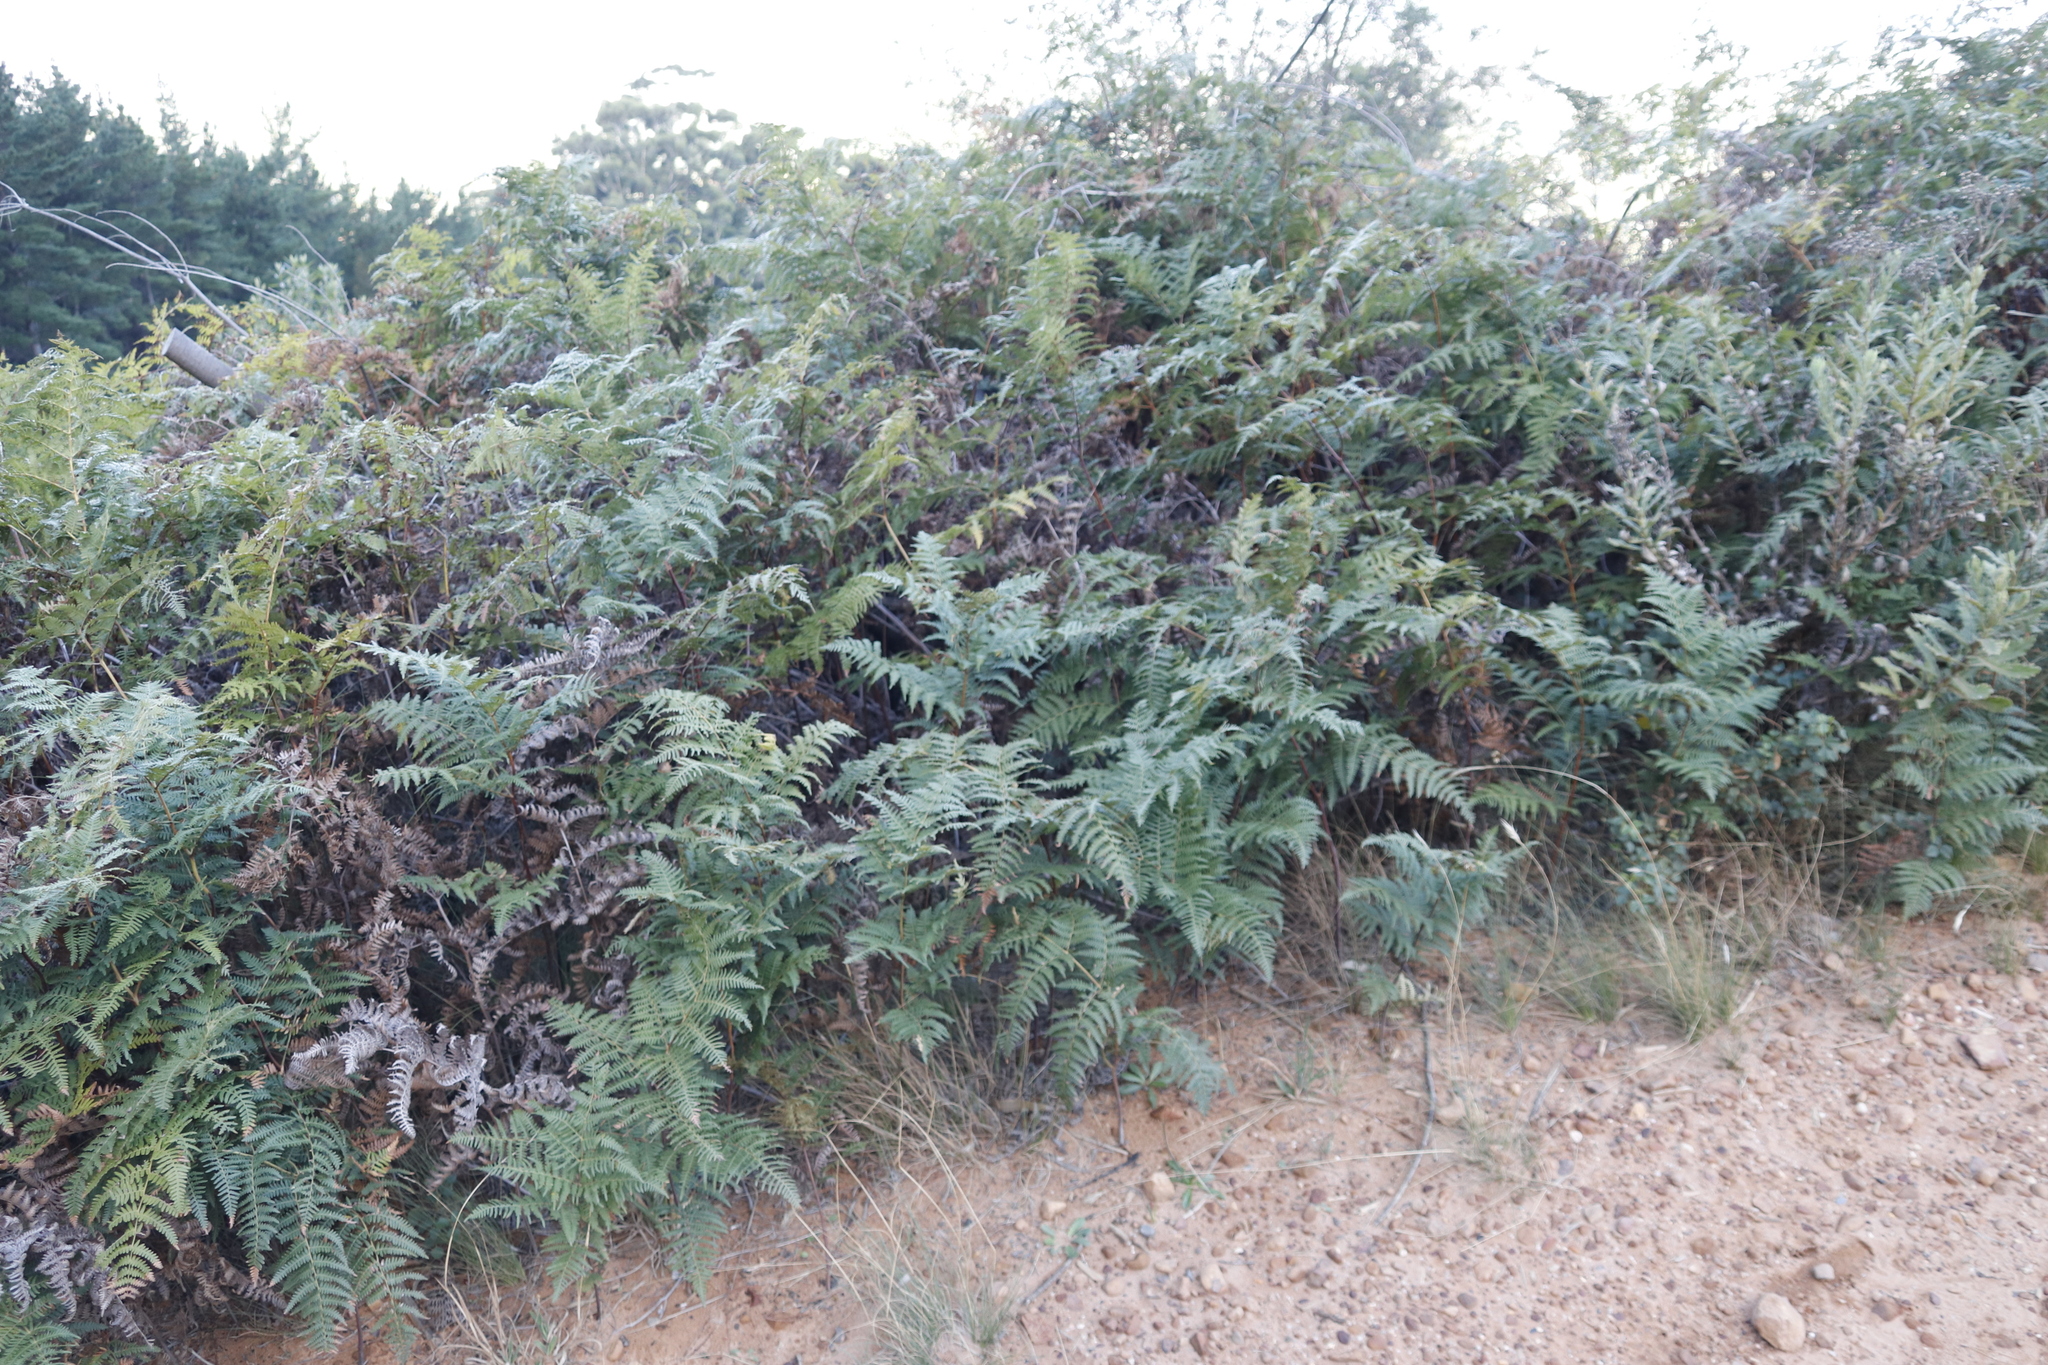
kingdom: Plantae
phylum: Tracheophyta
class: Polypodiopsida
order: Polypodiales
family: Dennstaedtiaceae
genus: Pteridium
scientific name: Pteridium aquilinum
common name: Bracken
